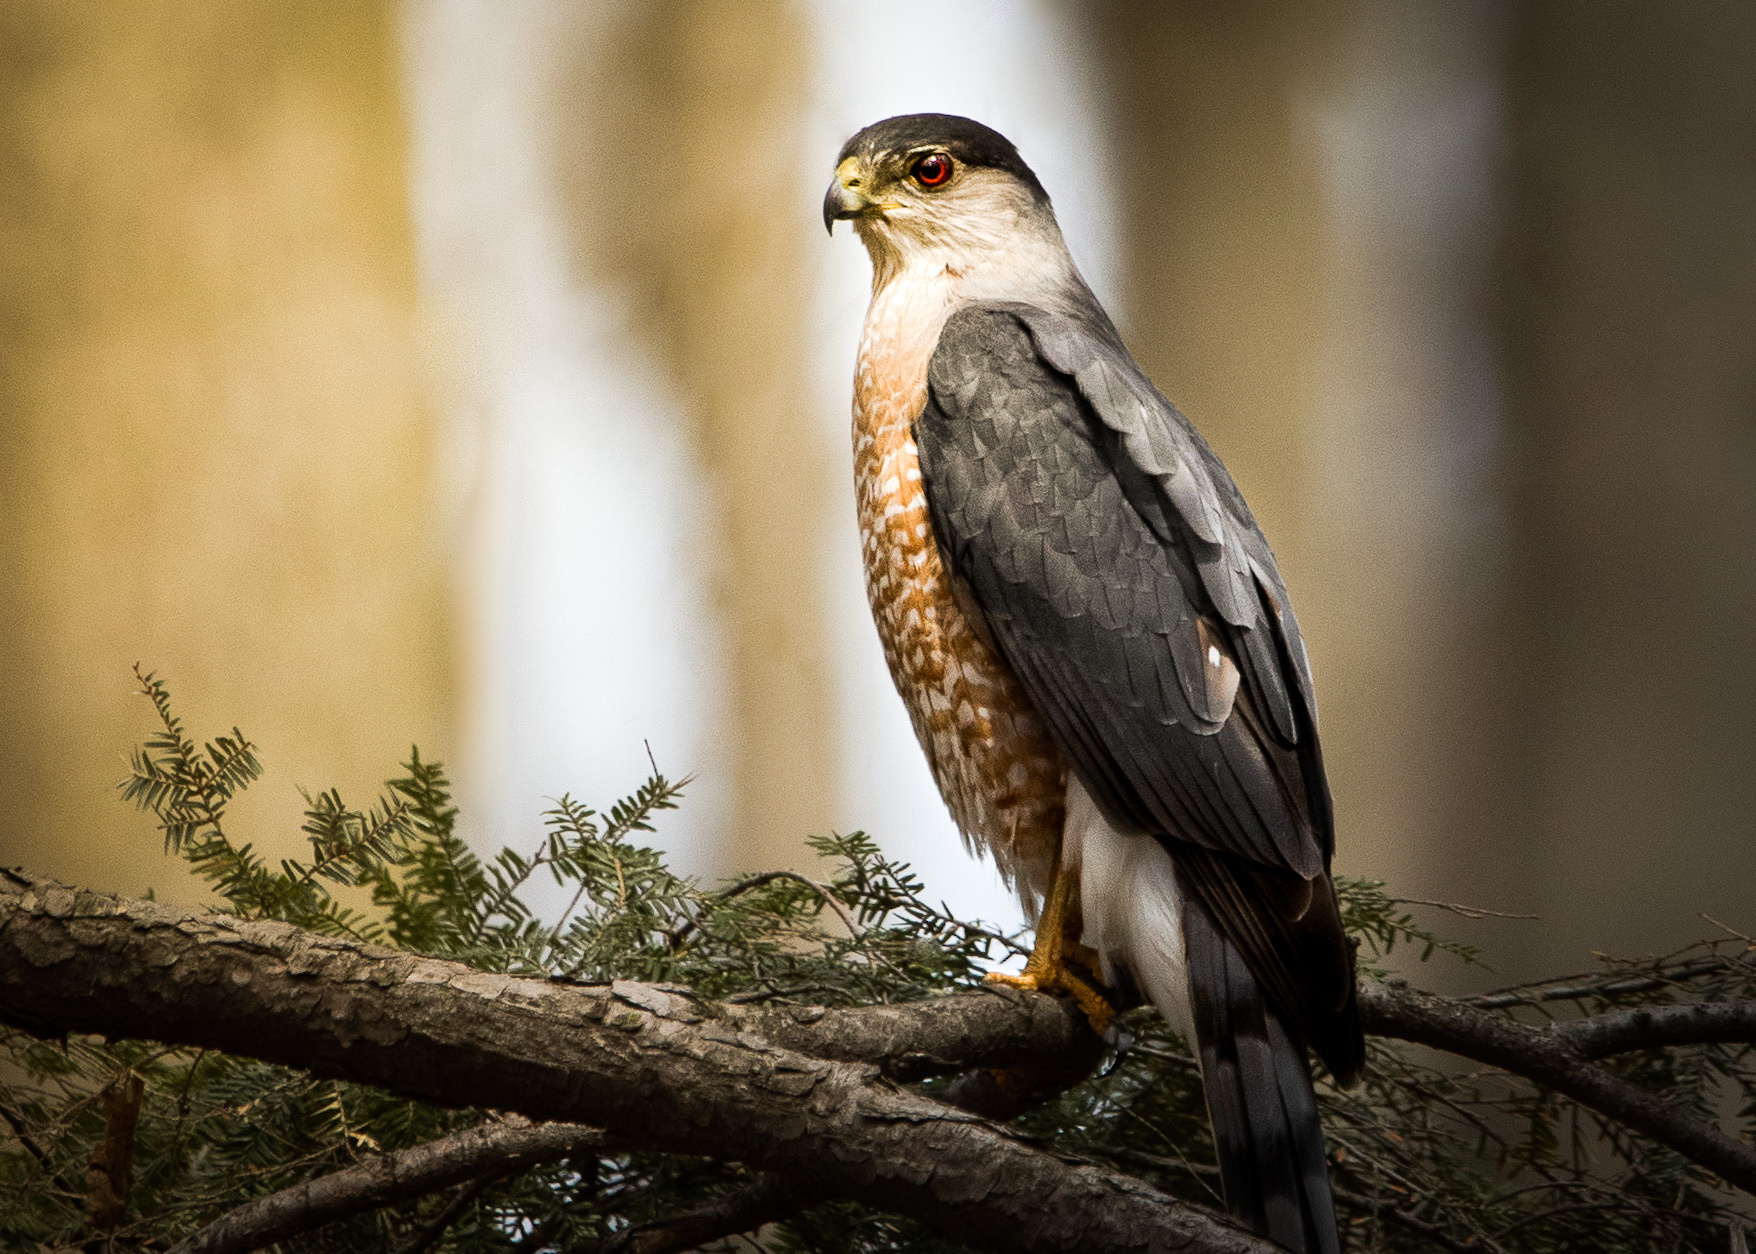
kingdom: Animalia
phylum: Chordata
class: Aves
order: Accipitriformes
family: Accipitridae
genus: Accipiter
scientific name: Accipiter cooperii
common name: Cooper's hawk
